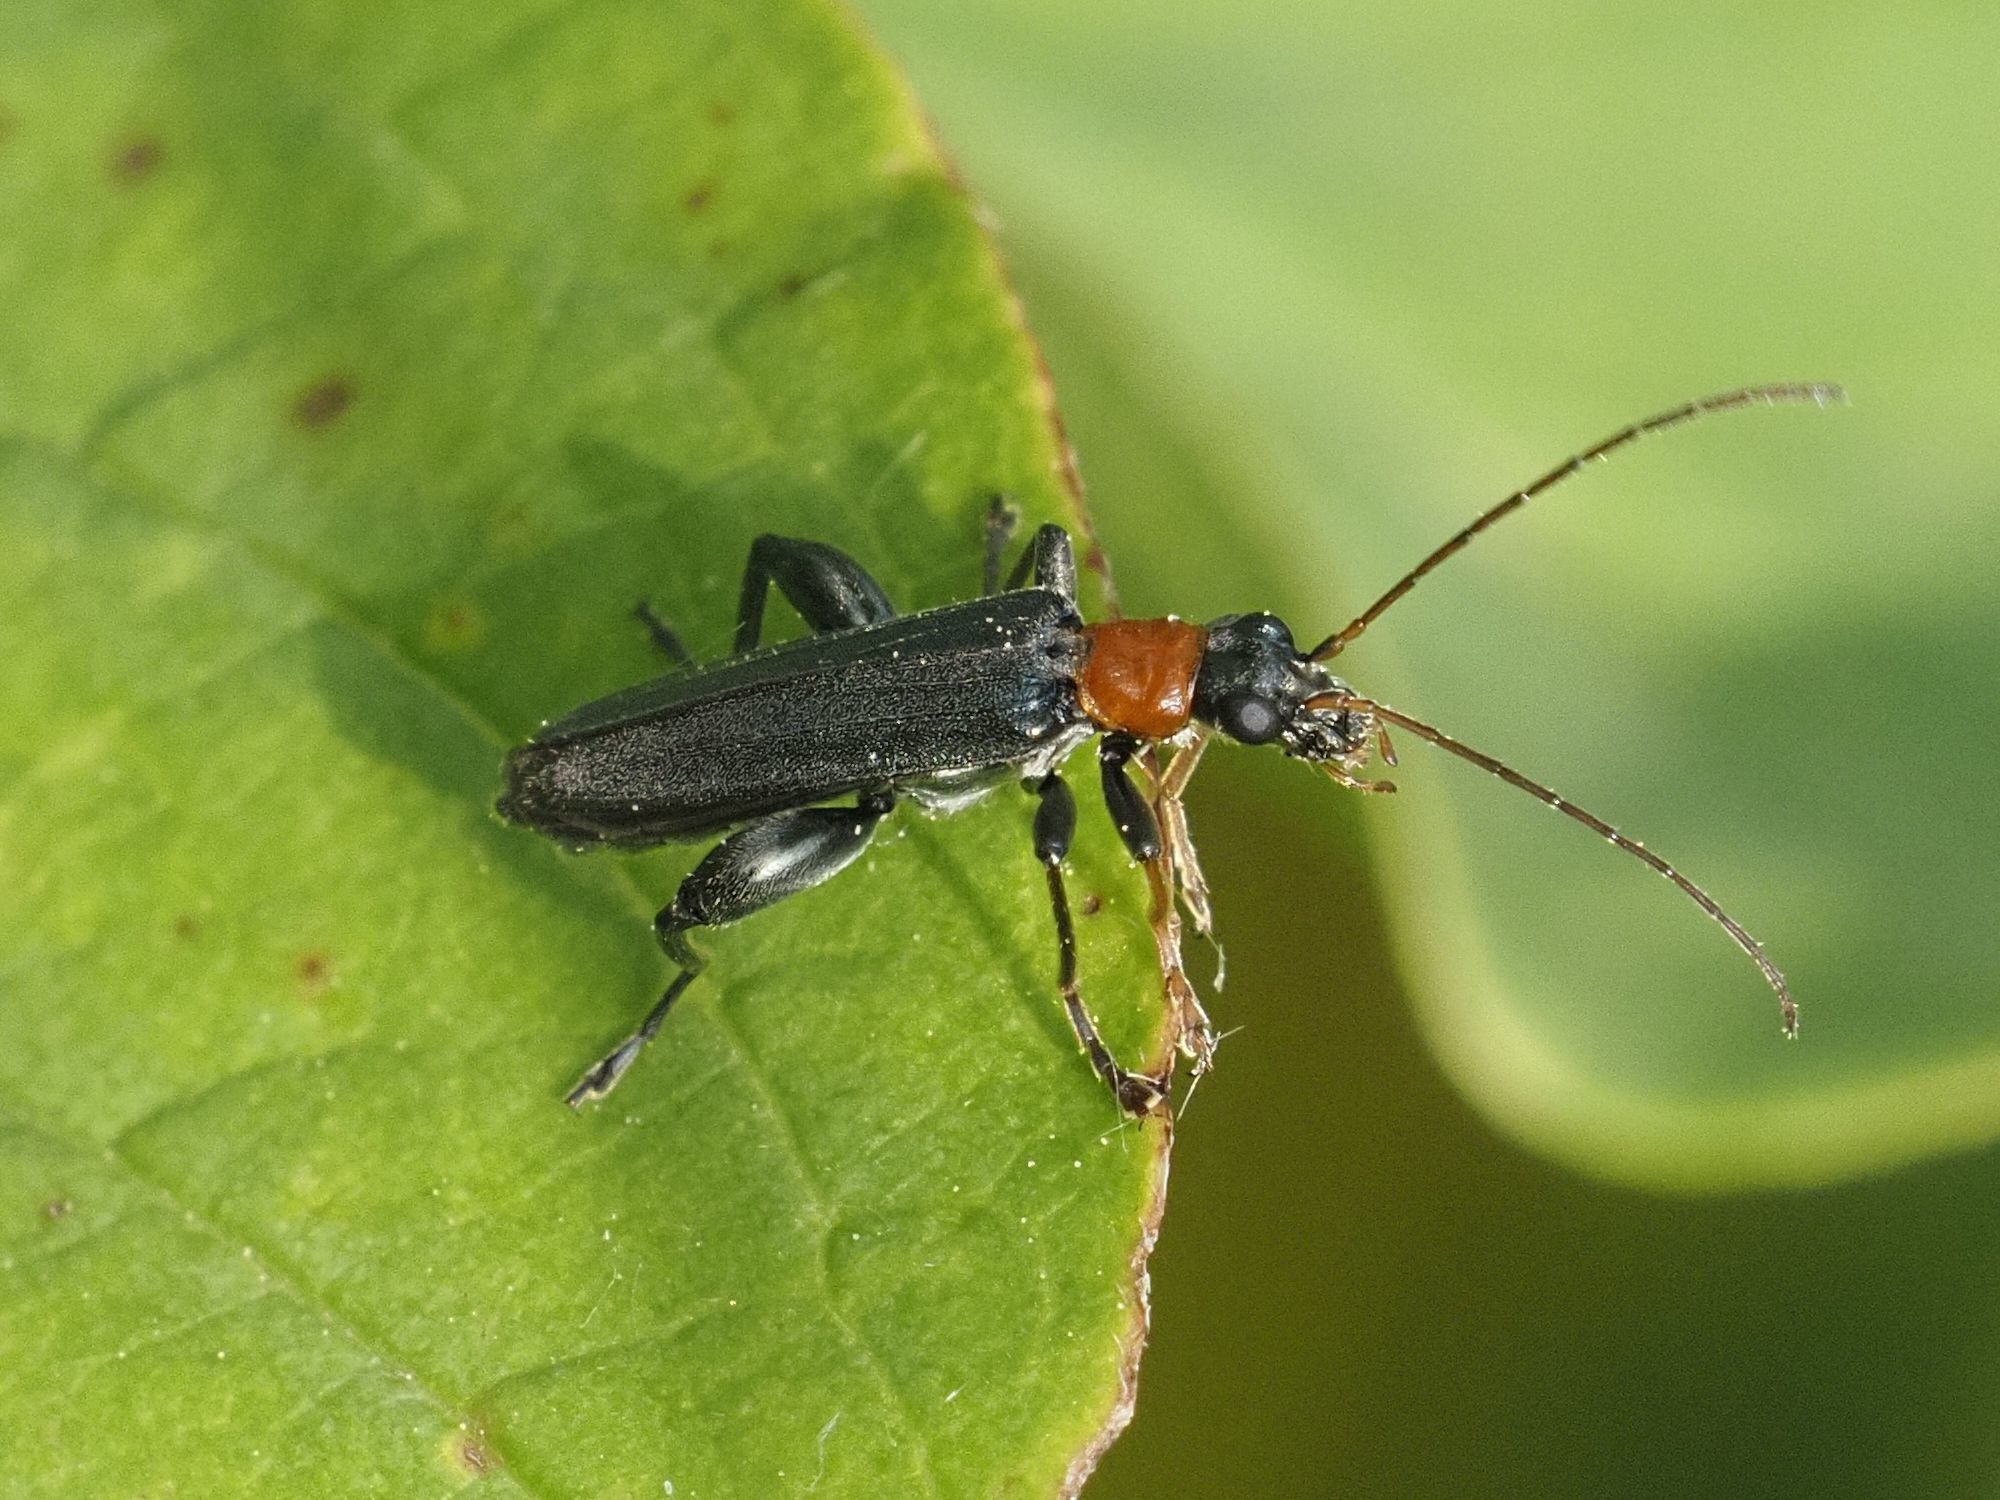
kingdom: Animalia
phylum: Arthropoda
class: Insecta
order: Coleoptera
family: Oedemeridae
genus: Oedemera
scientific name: Oedemera croceicollis
